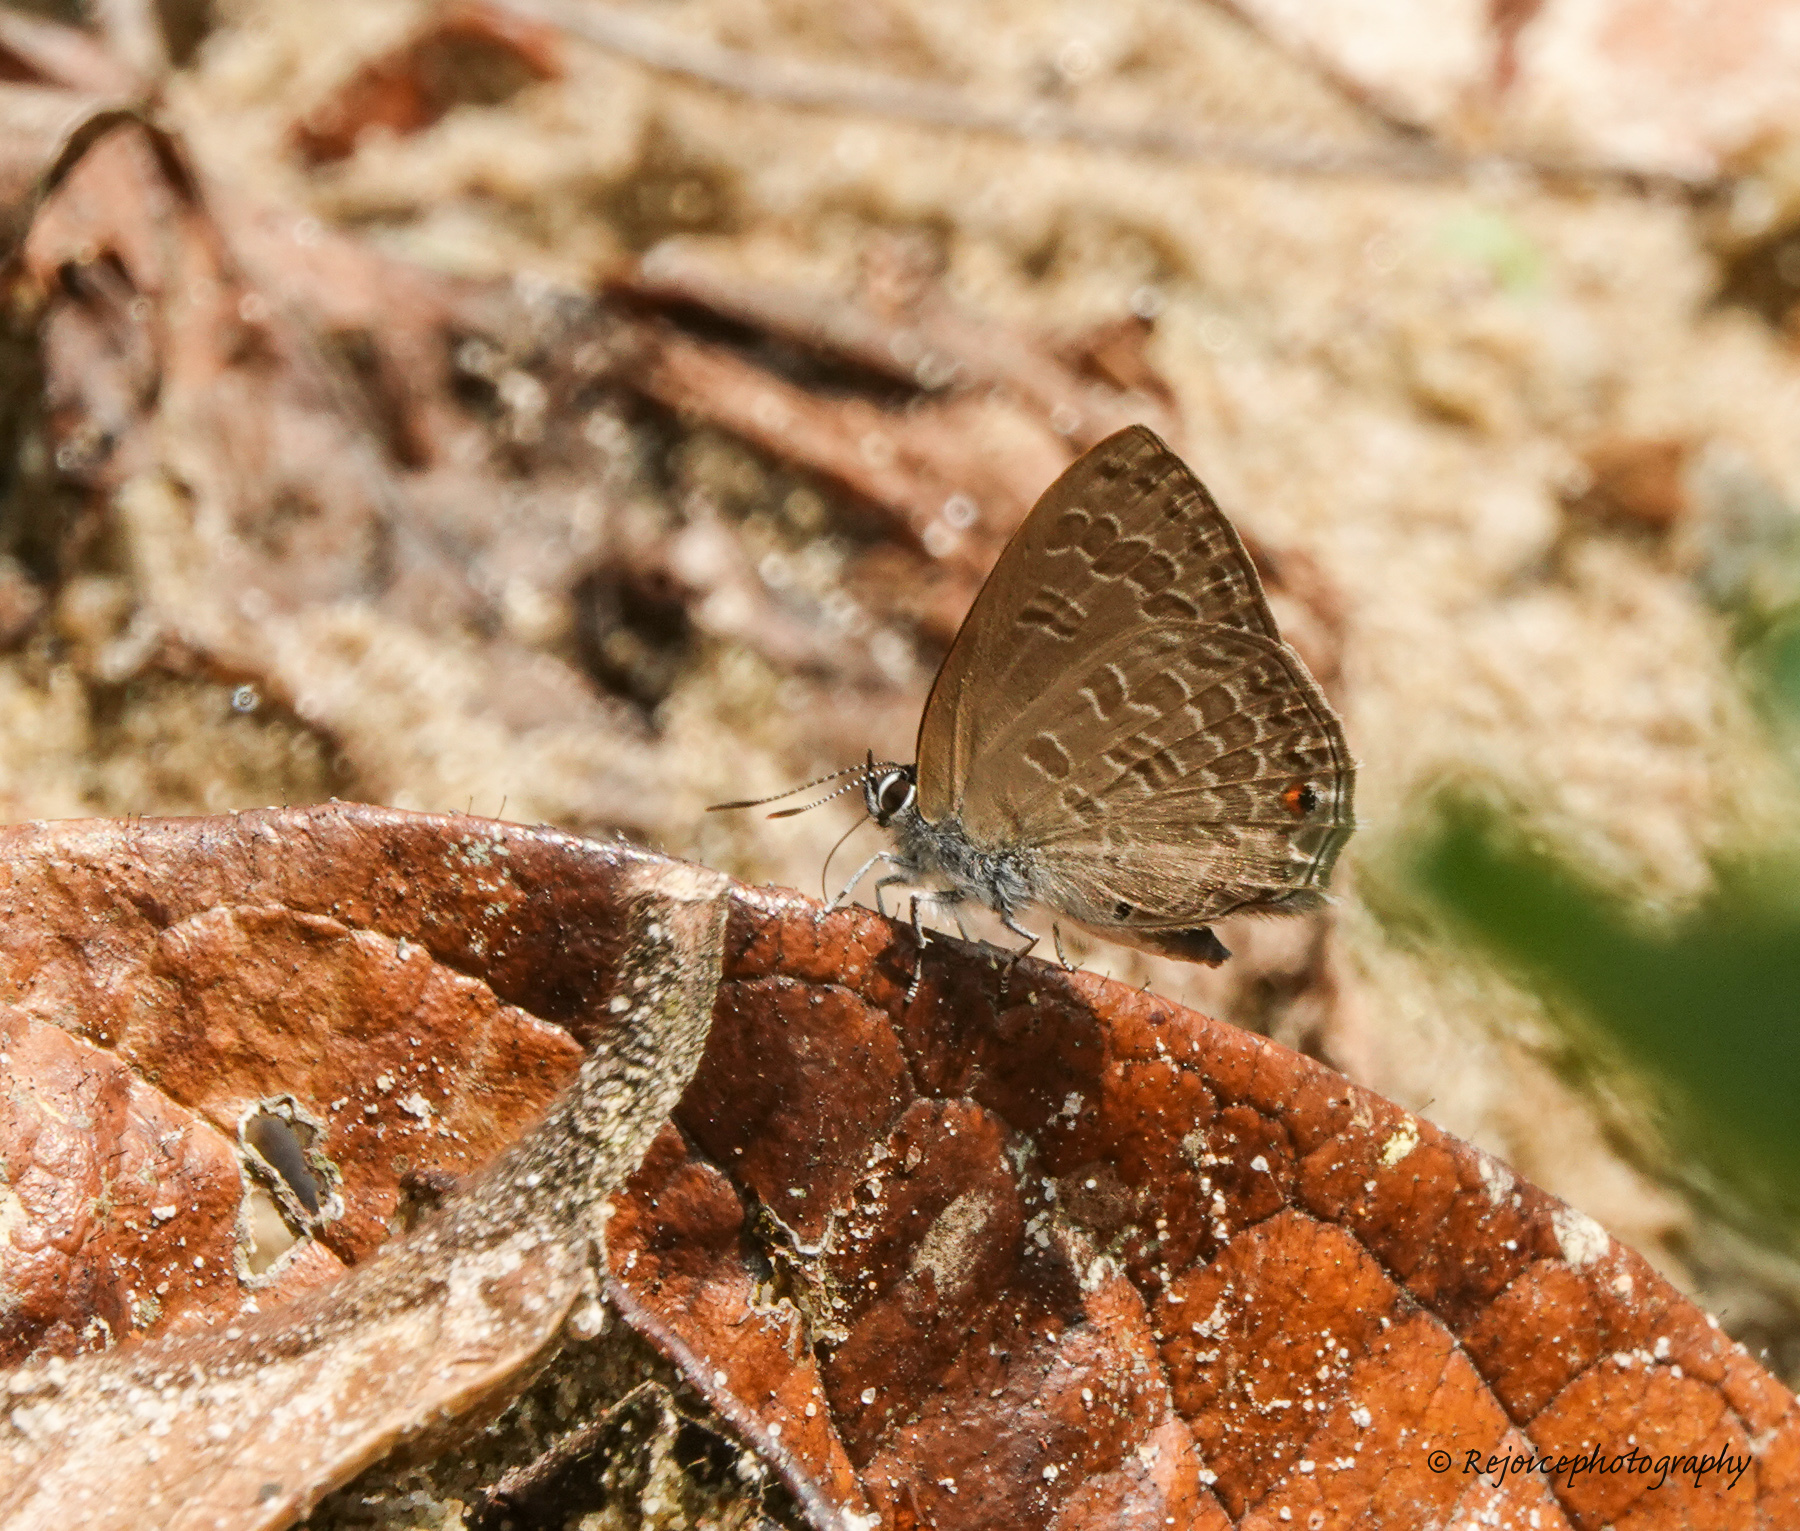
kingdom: Animalia
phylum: Arthropoda
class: Insecta
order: Lepidoptera
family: Lycaenidae
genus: Anthene
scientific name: Anthene emolus
